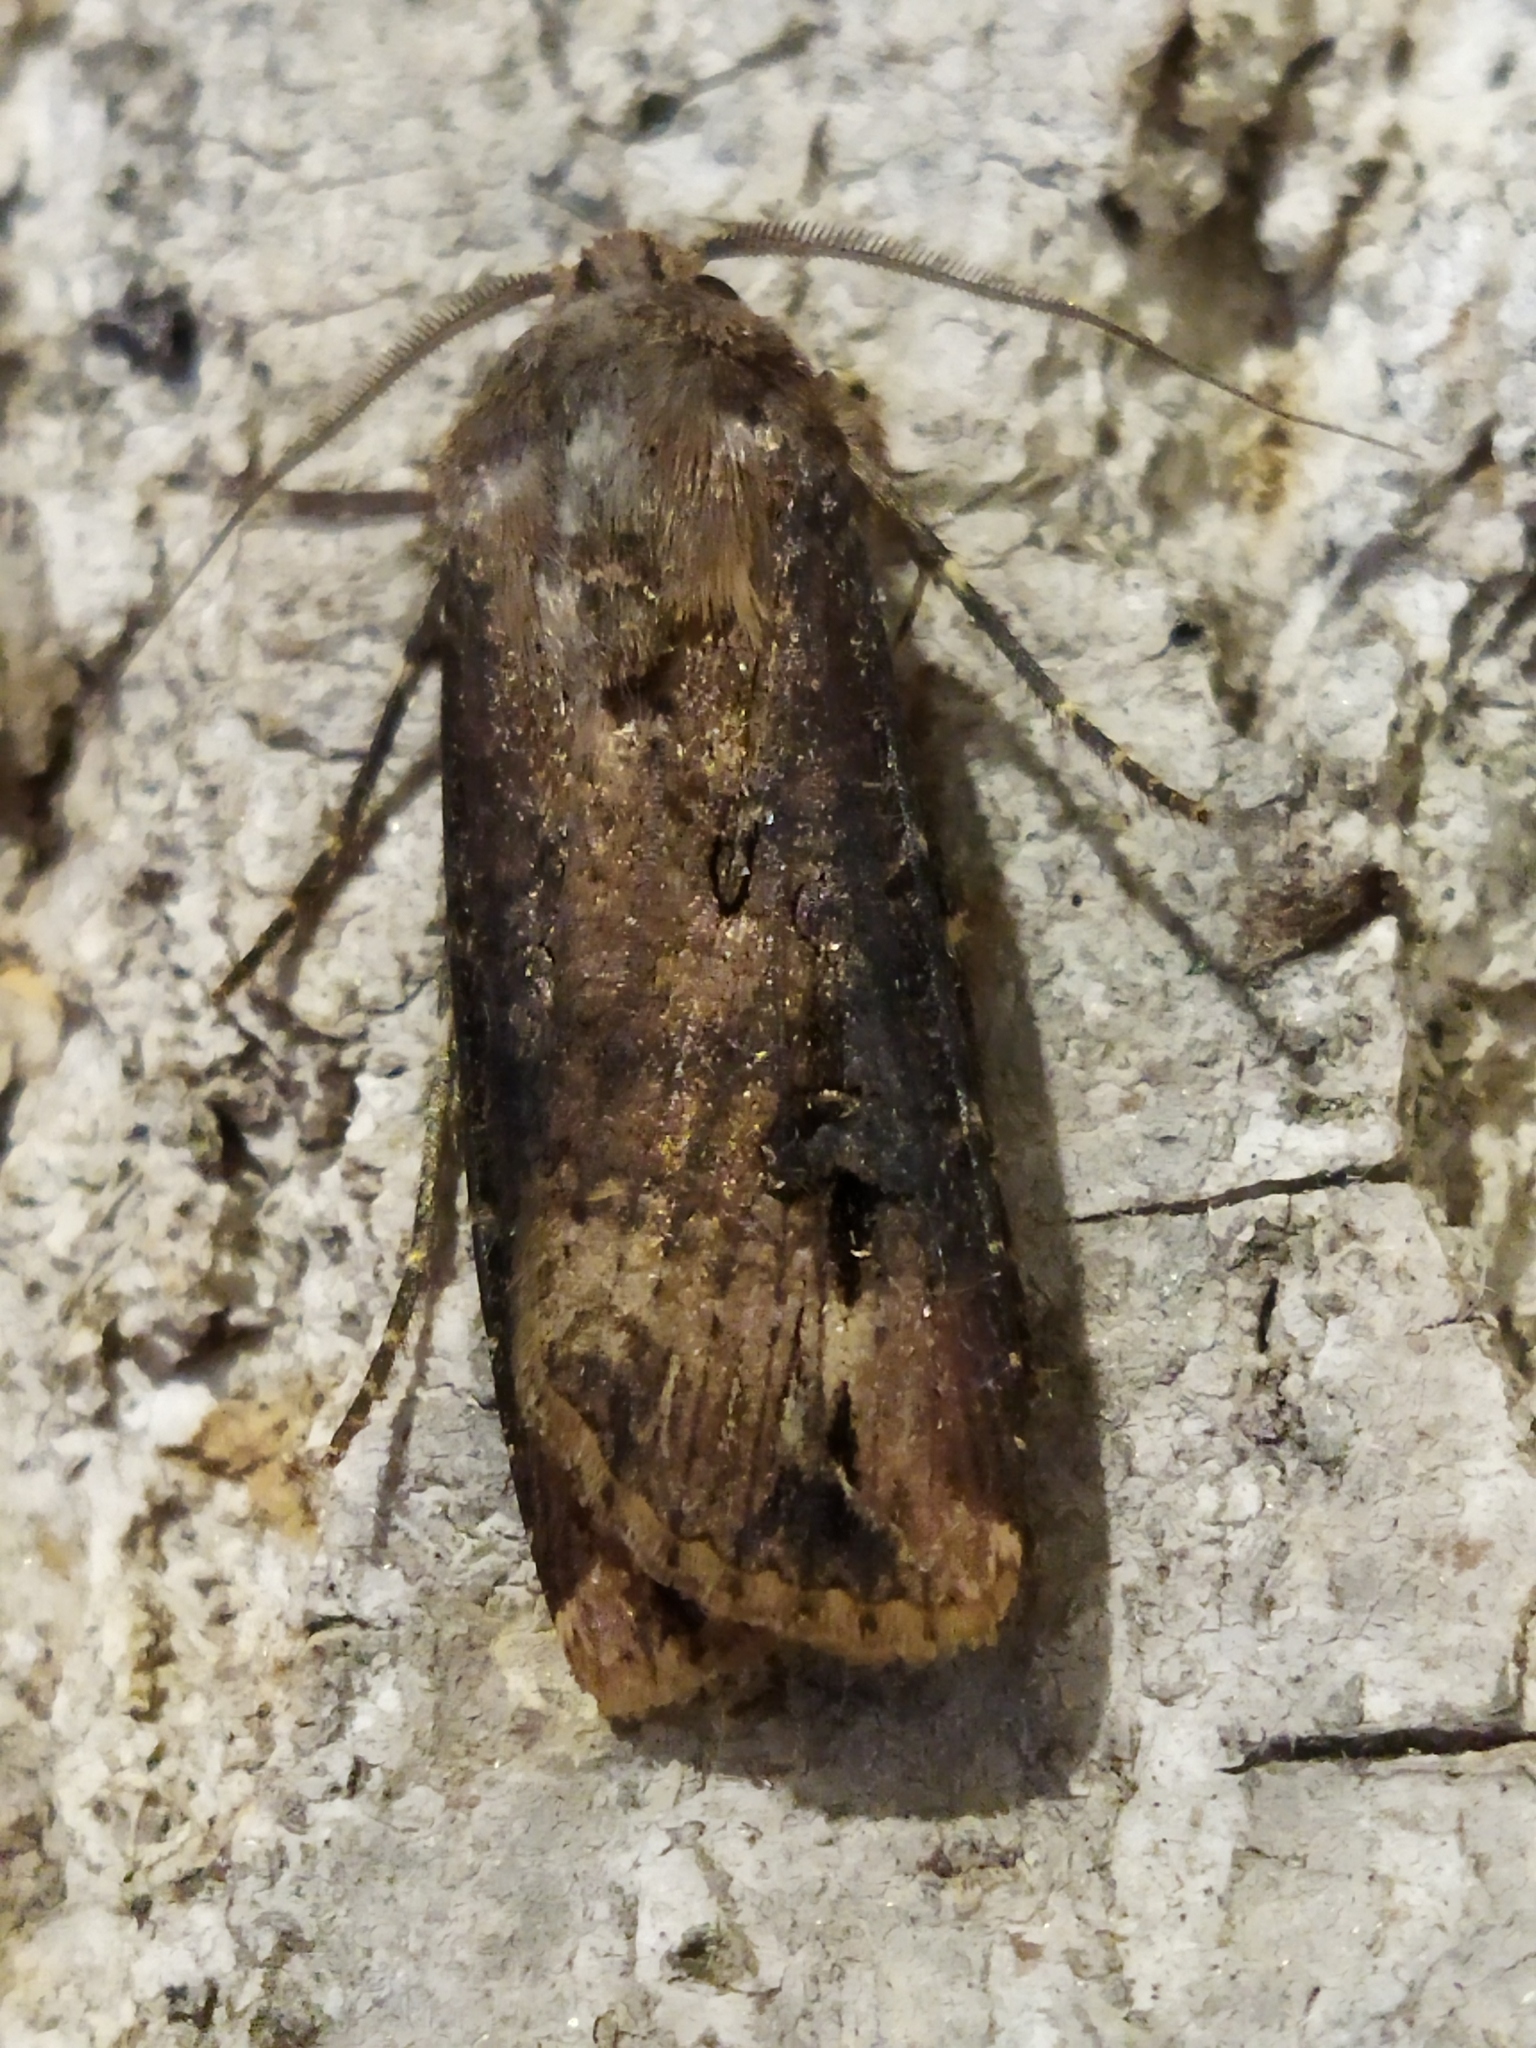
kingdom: Animalia
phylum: Arthropoda
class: Insecta
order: Lepidoptera
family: Noctuidae
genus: Agrotis
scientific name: Agrotis ipsilon
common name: Dark sword-grass
